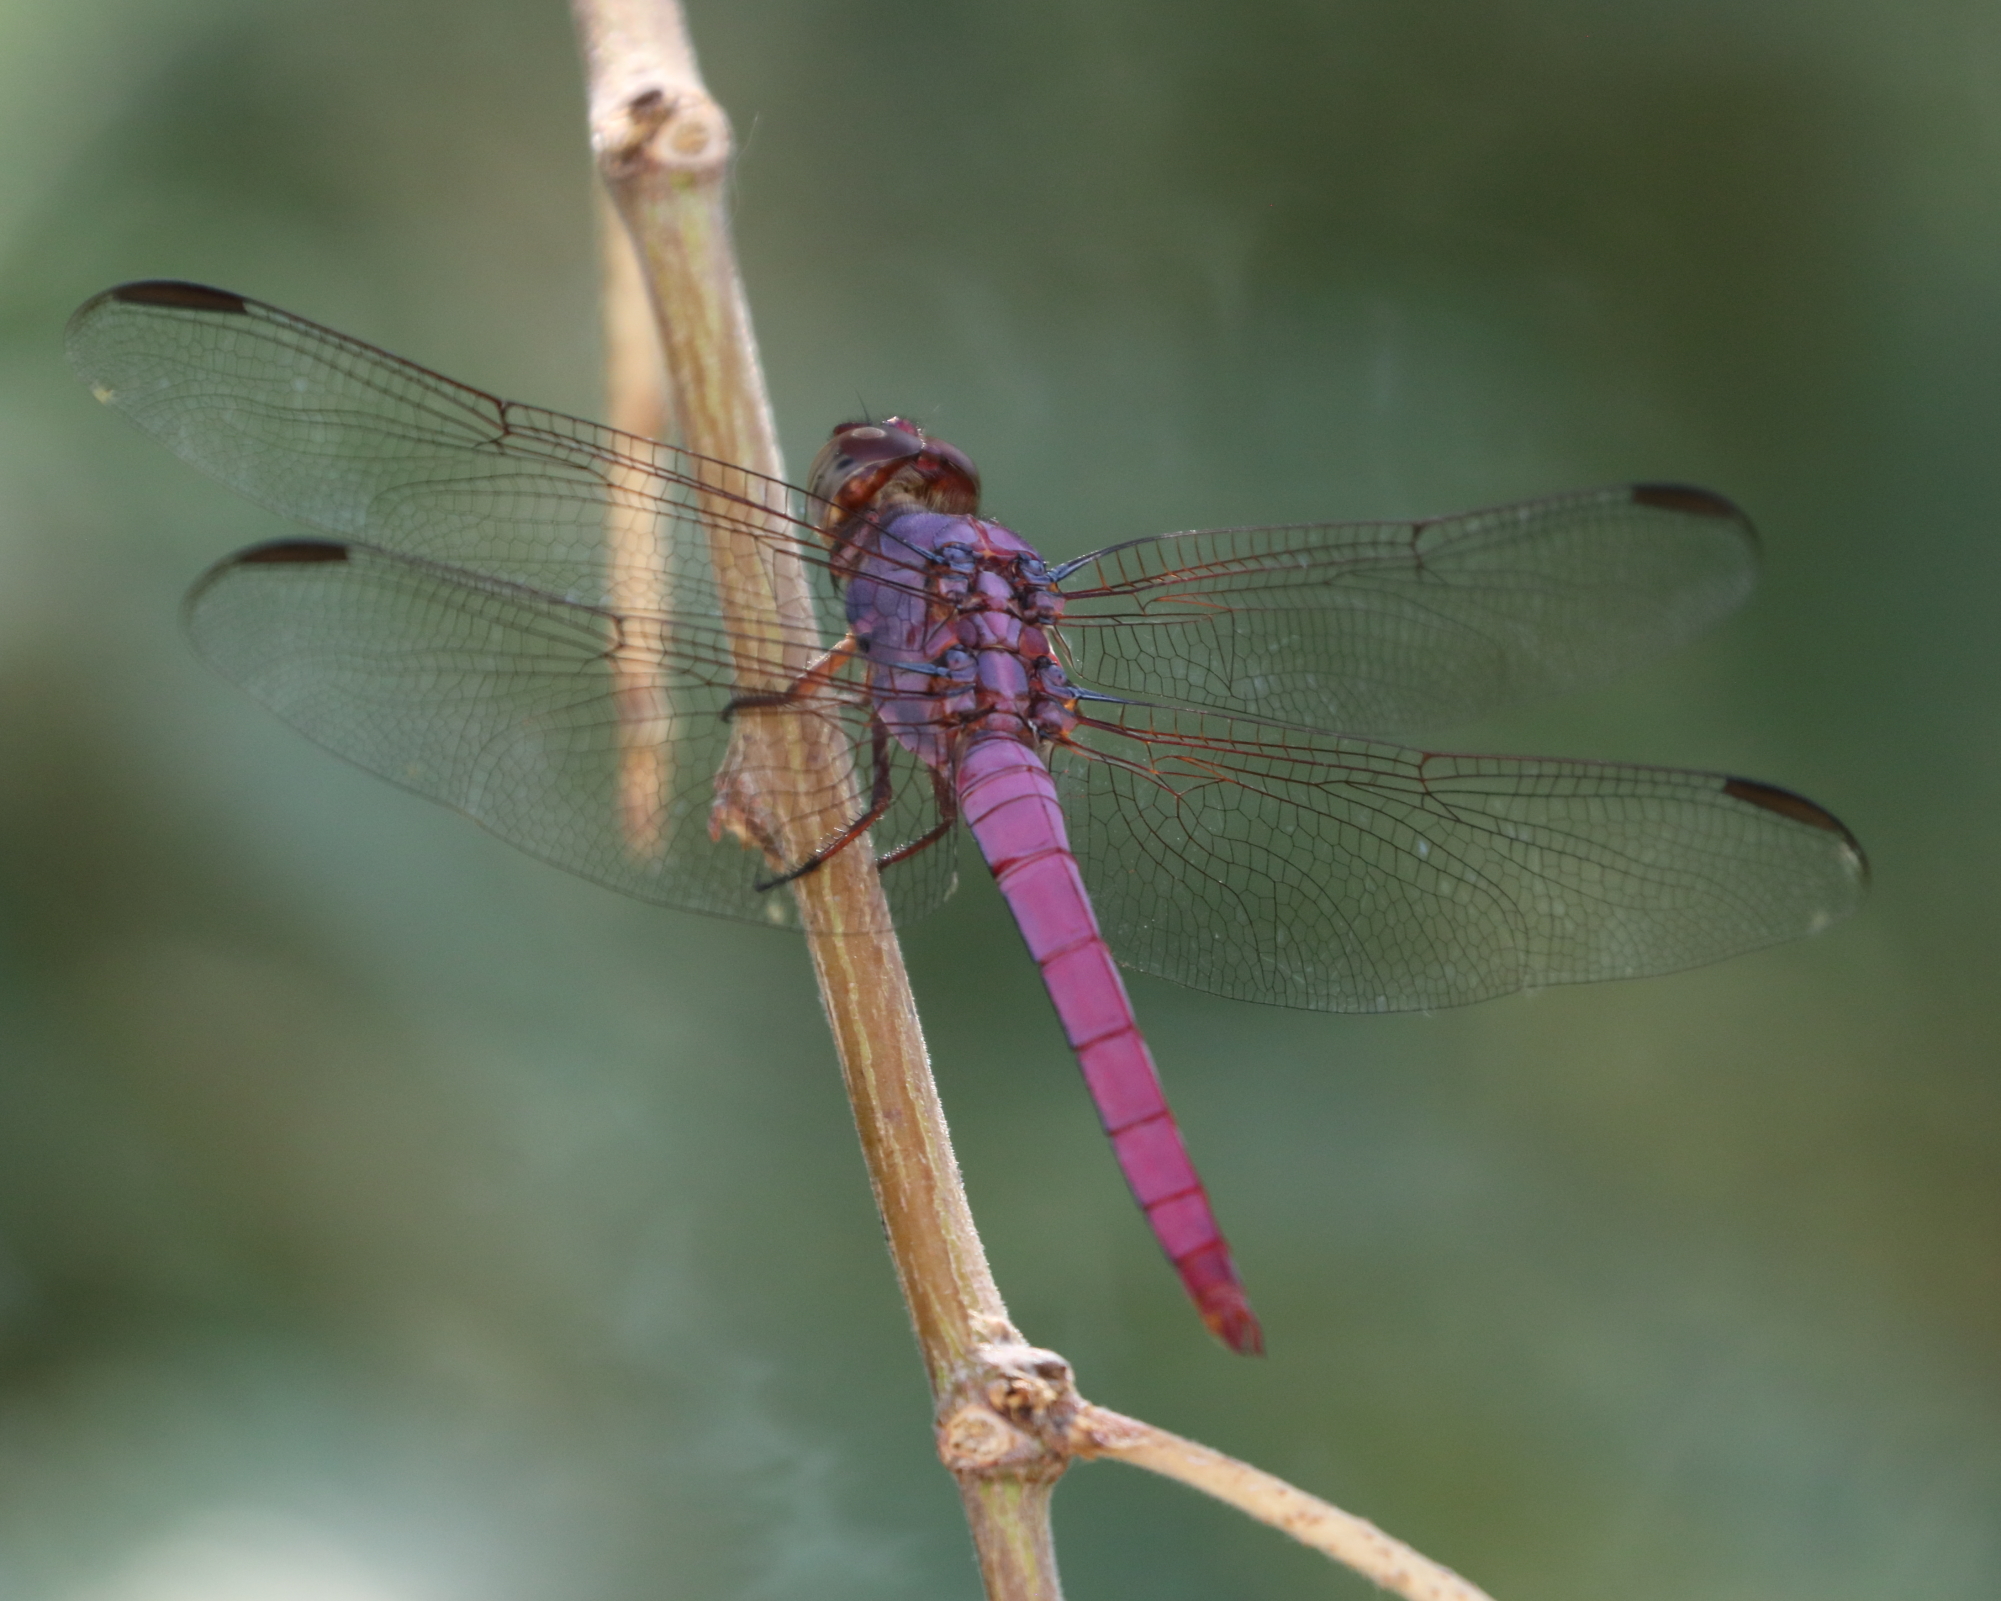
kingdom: Animalia
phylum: Arthropoda
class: Insecta
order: Odonata
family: Libellulidae
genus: Orthemis
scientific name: Orthemis ferruginea
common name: Roseate skimmer
